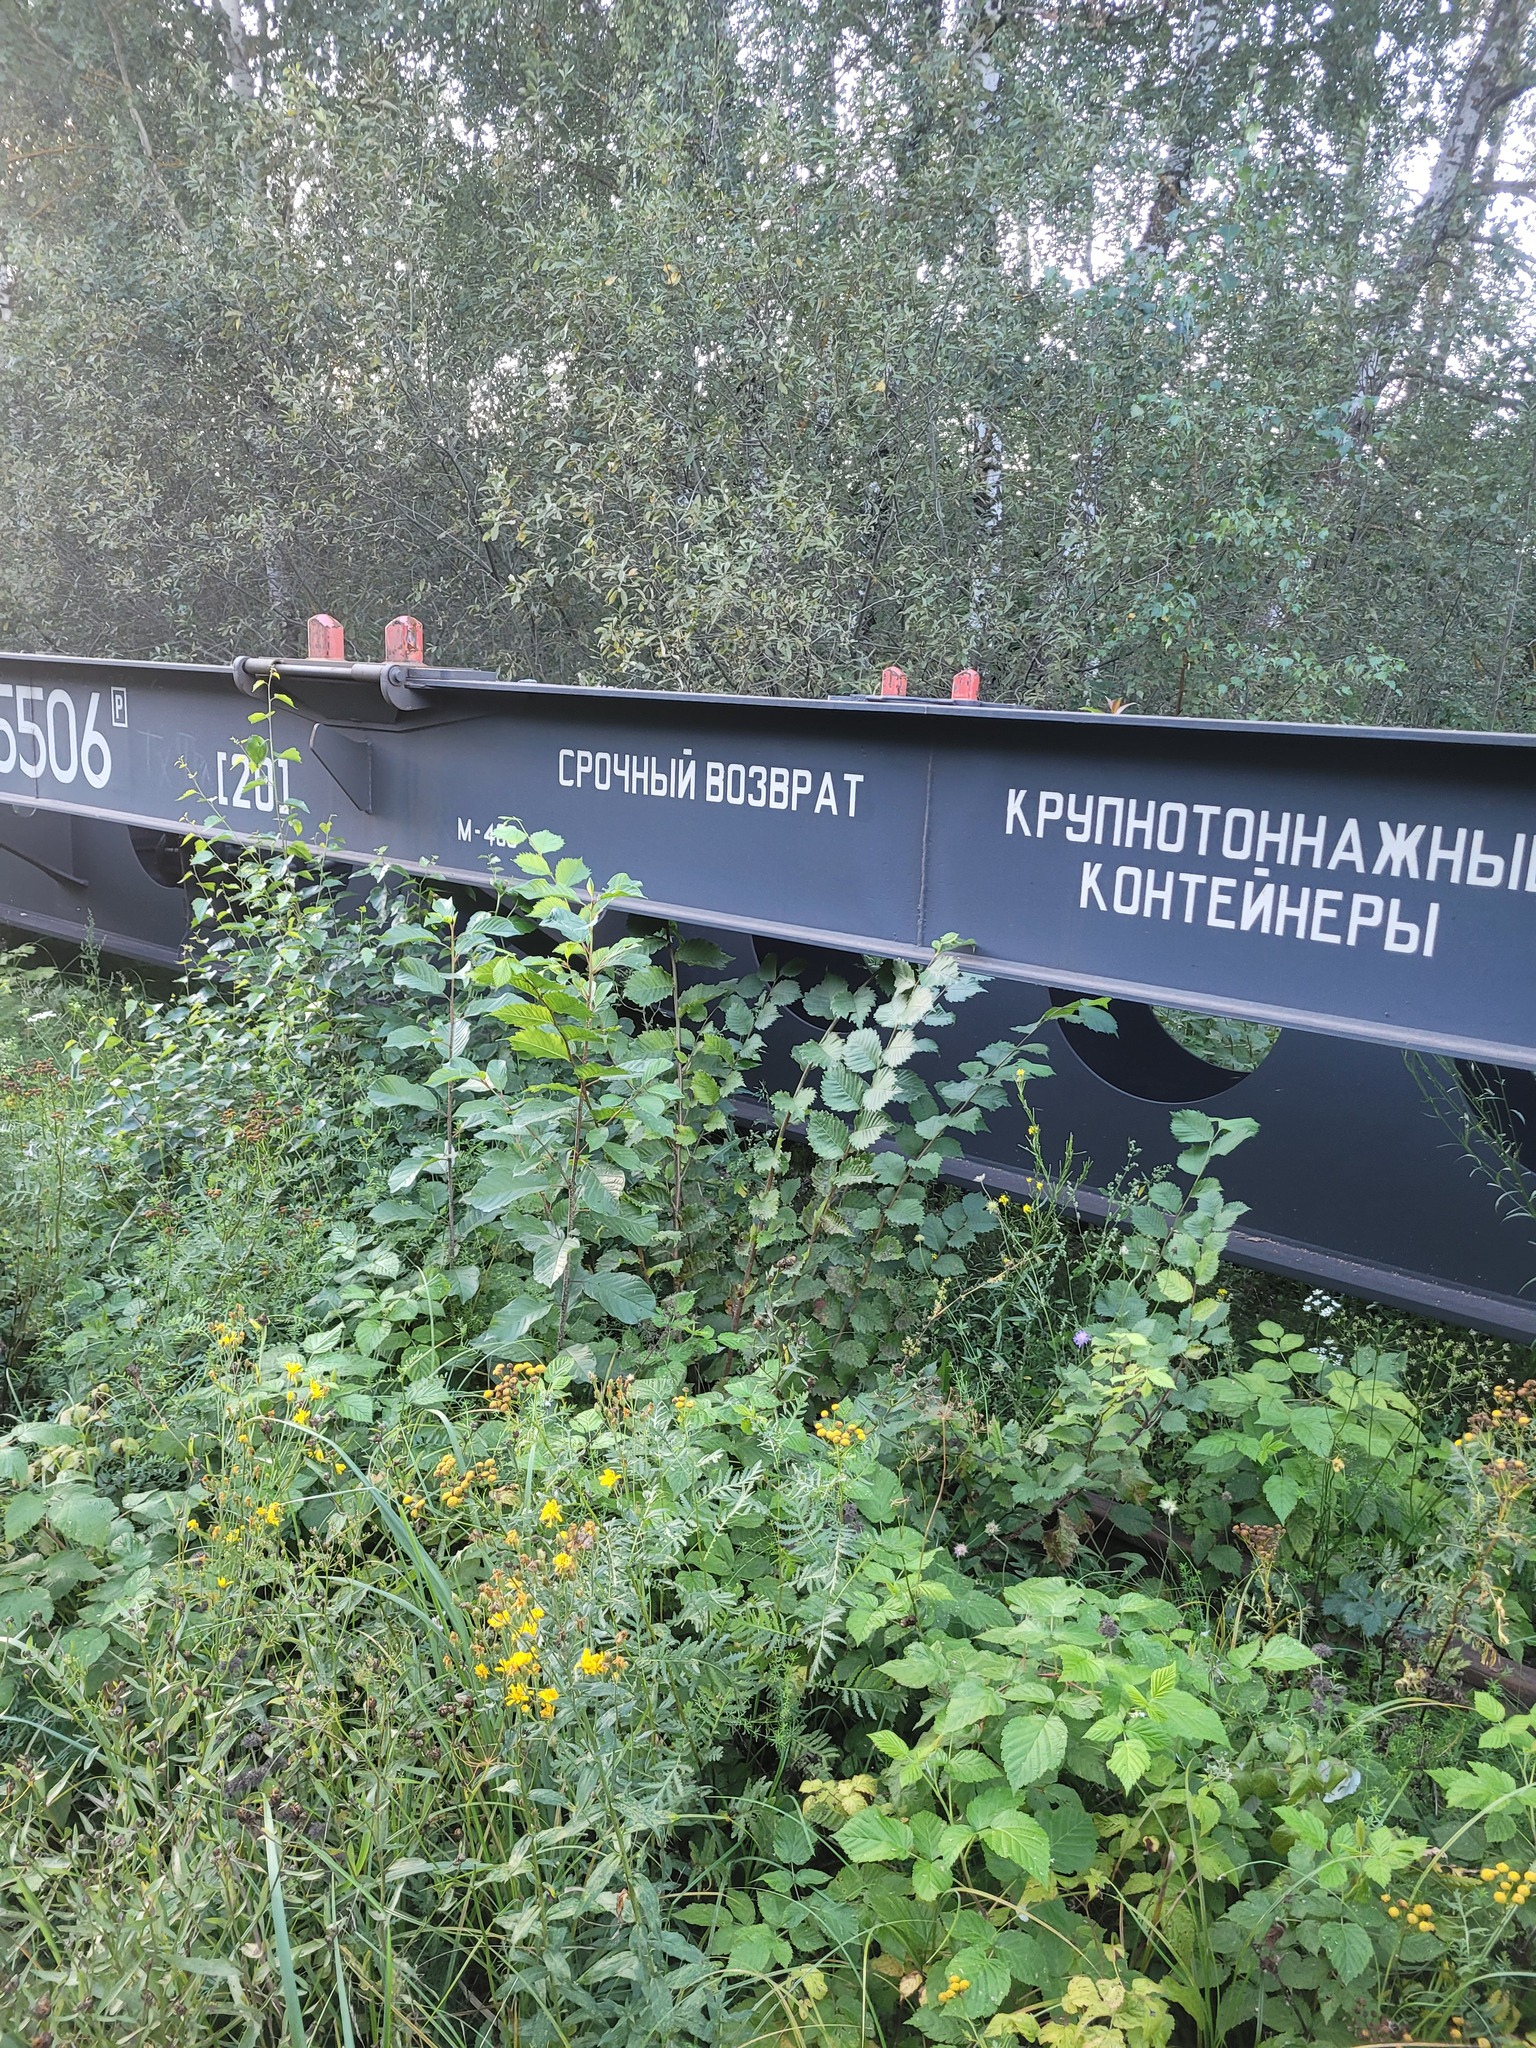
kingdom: Plantae
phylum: Tracheophyta
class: Magnoliopsida
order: Rosales
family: Rhamnaceae
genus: Frangula
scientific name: Frangula alnus
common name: Alder buckthorn
